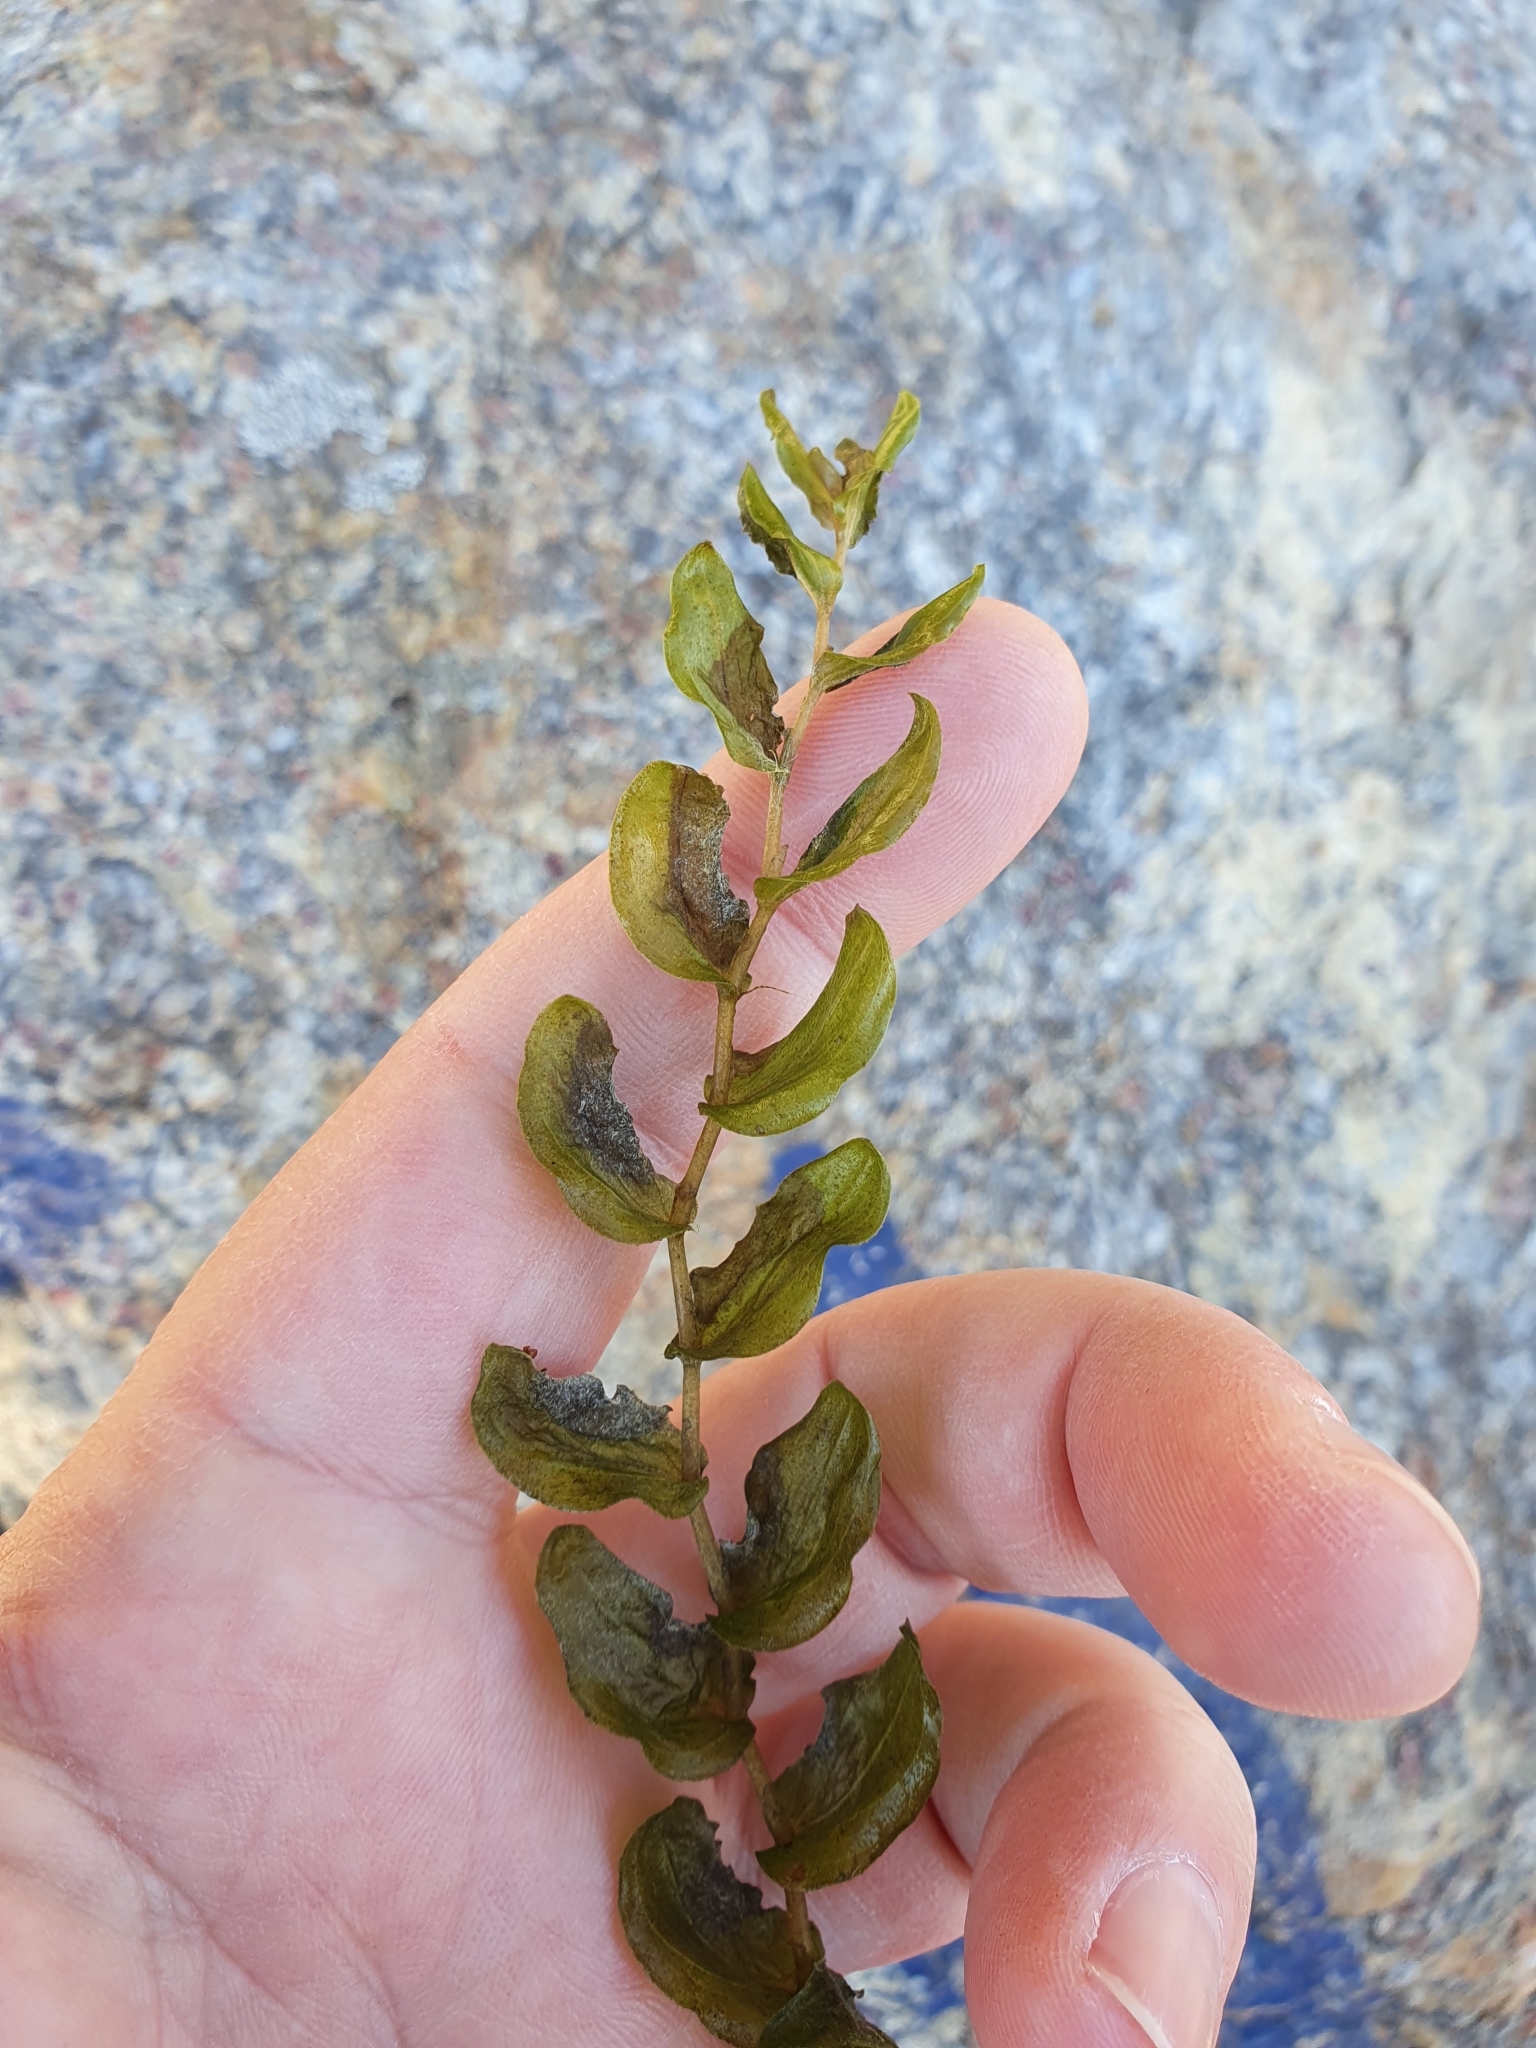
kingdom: Plantae
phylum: Tracheophyta
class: Liliopsida
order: Alismatales
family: Potamogetonaceae
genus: Potamogeton
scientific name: Potamogeton perfoliatus
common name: Perfoliate pondweed
